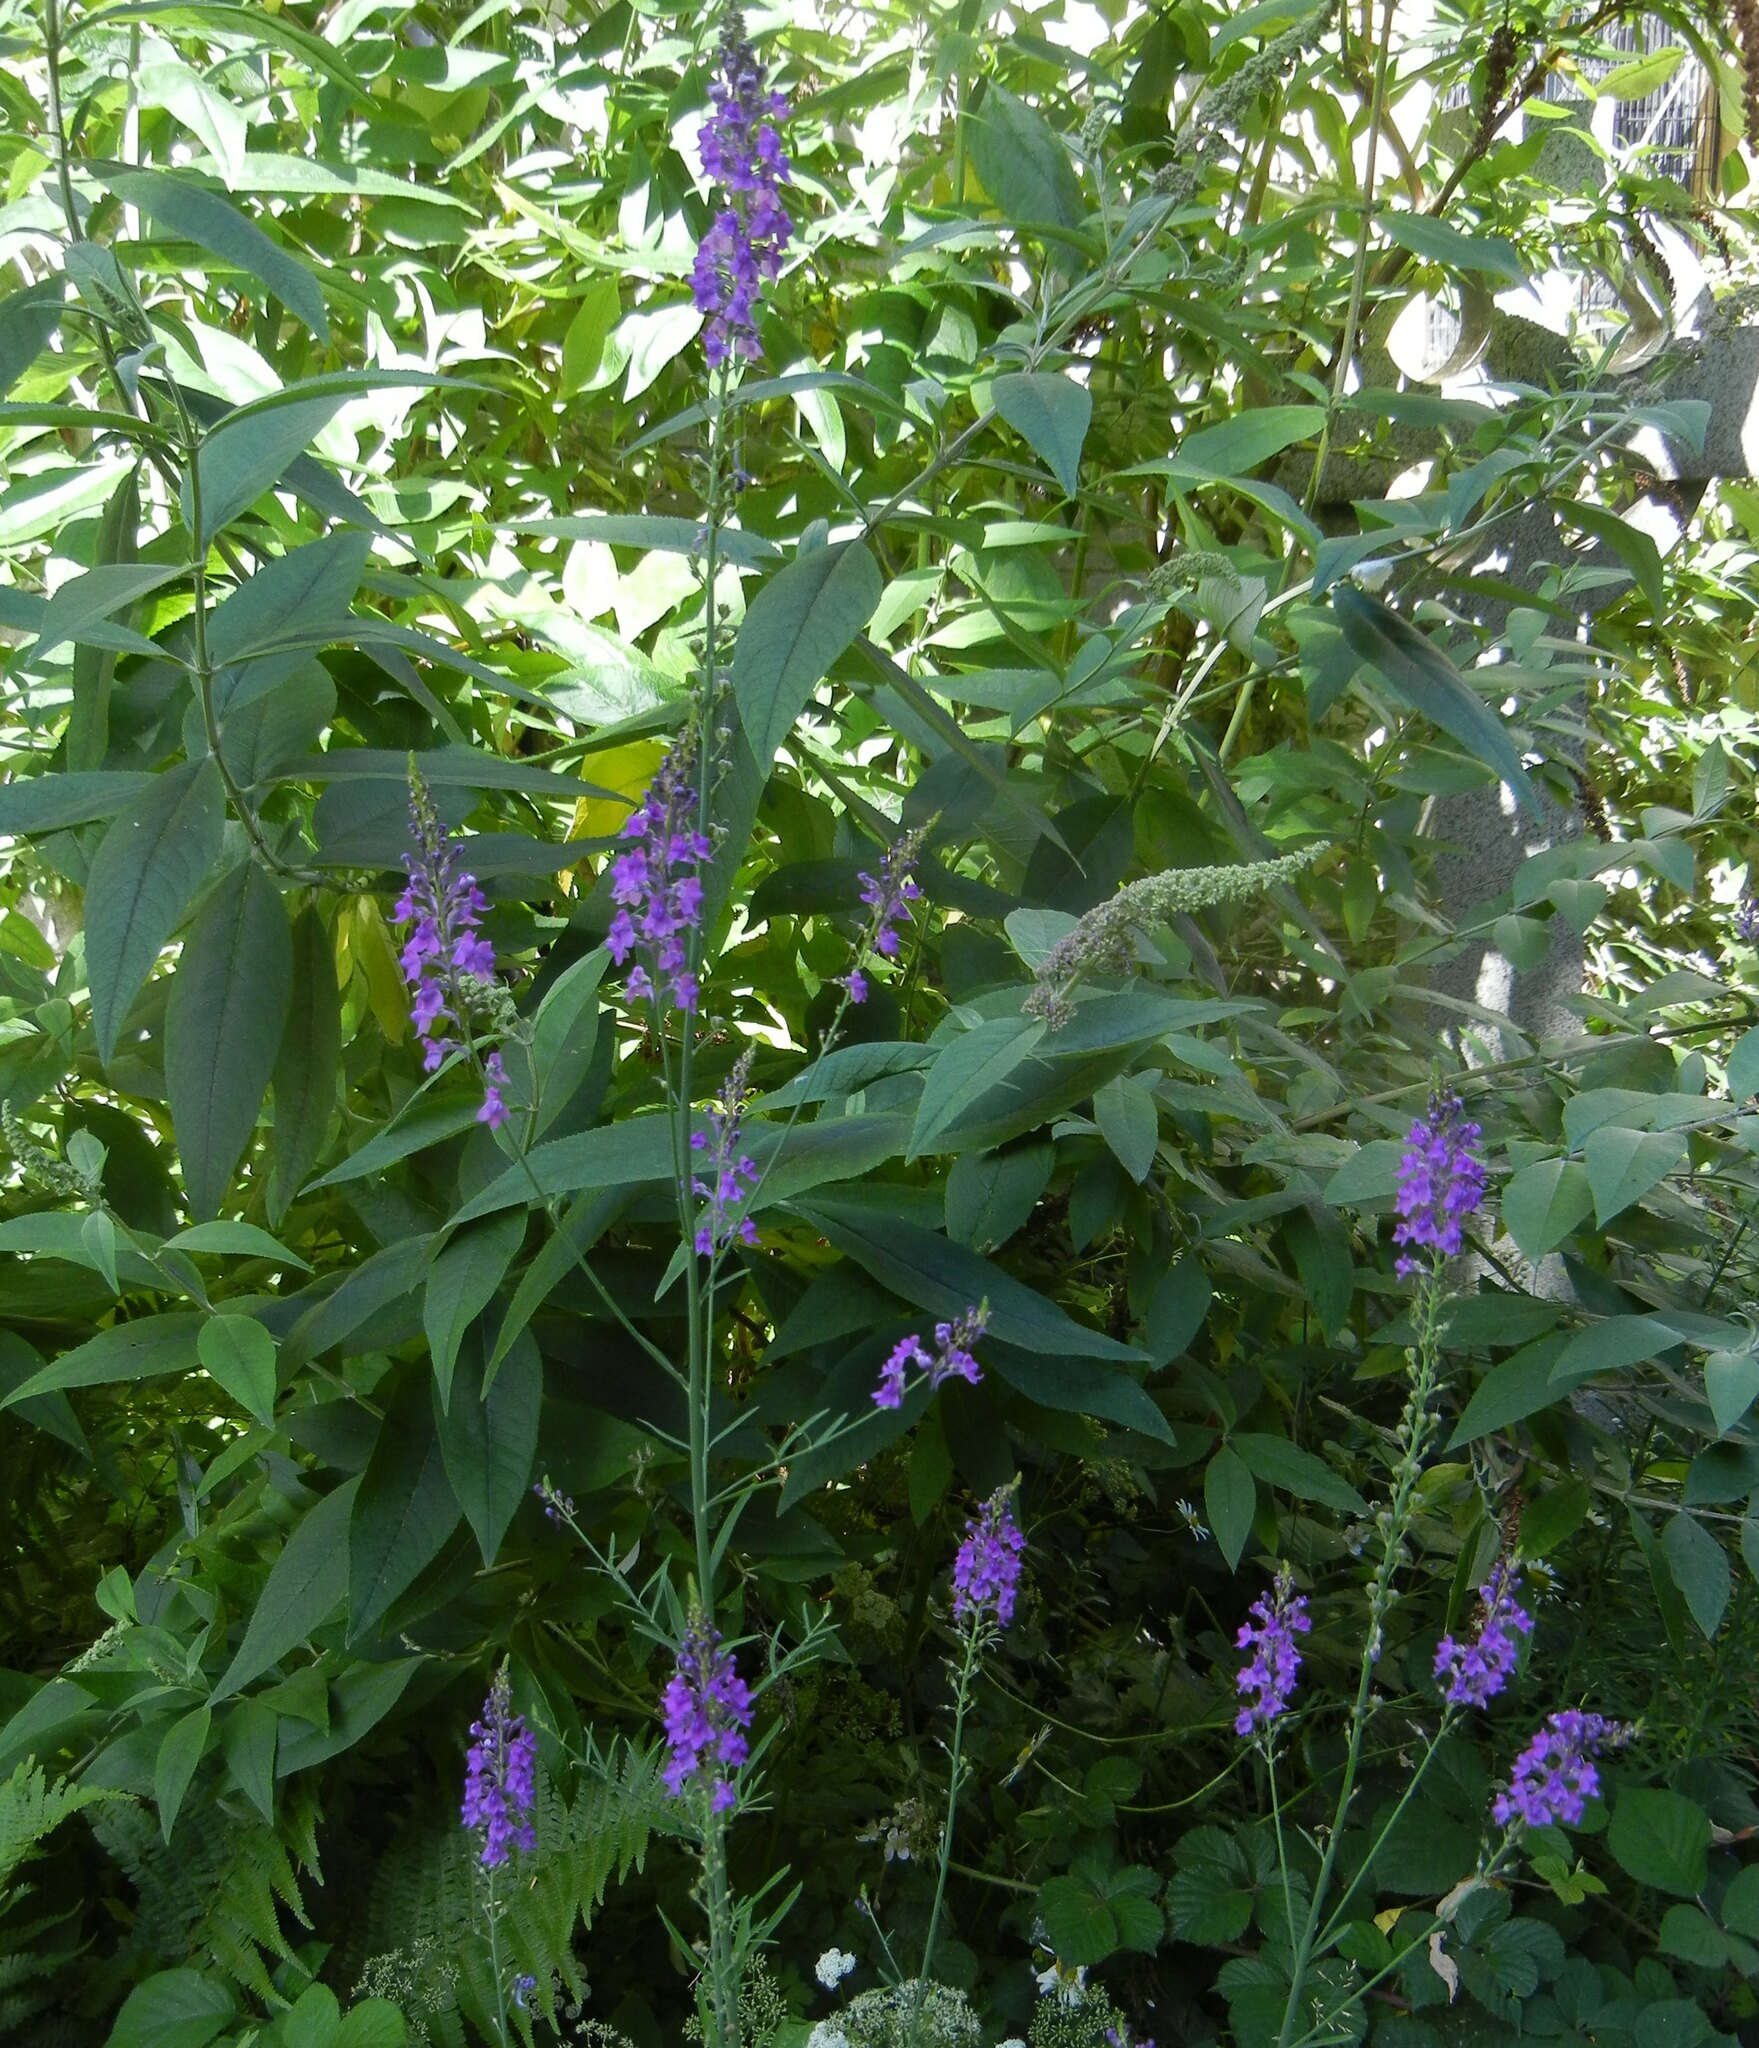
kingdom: Plantae
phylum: Tracheophyta
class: Magnoliopsida
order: Lamiales
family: Plantaginaceae
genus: Linaria
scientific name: Linaria purpurea
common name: Purple toadflax
